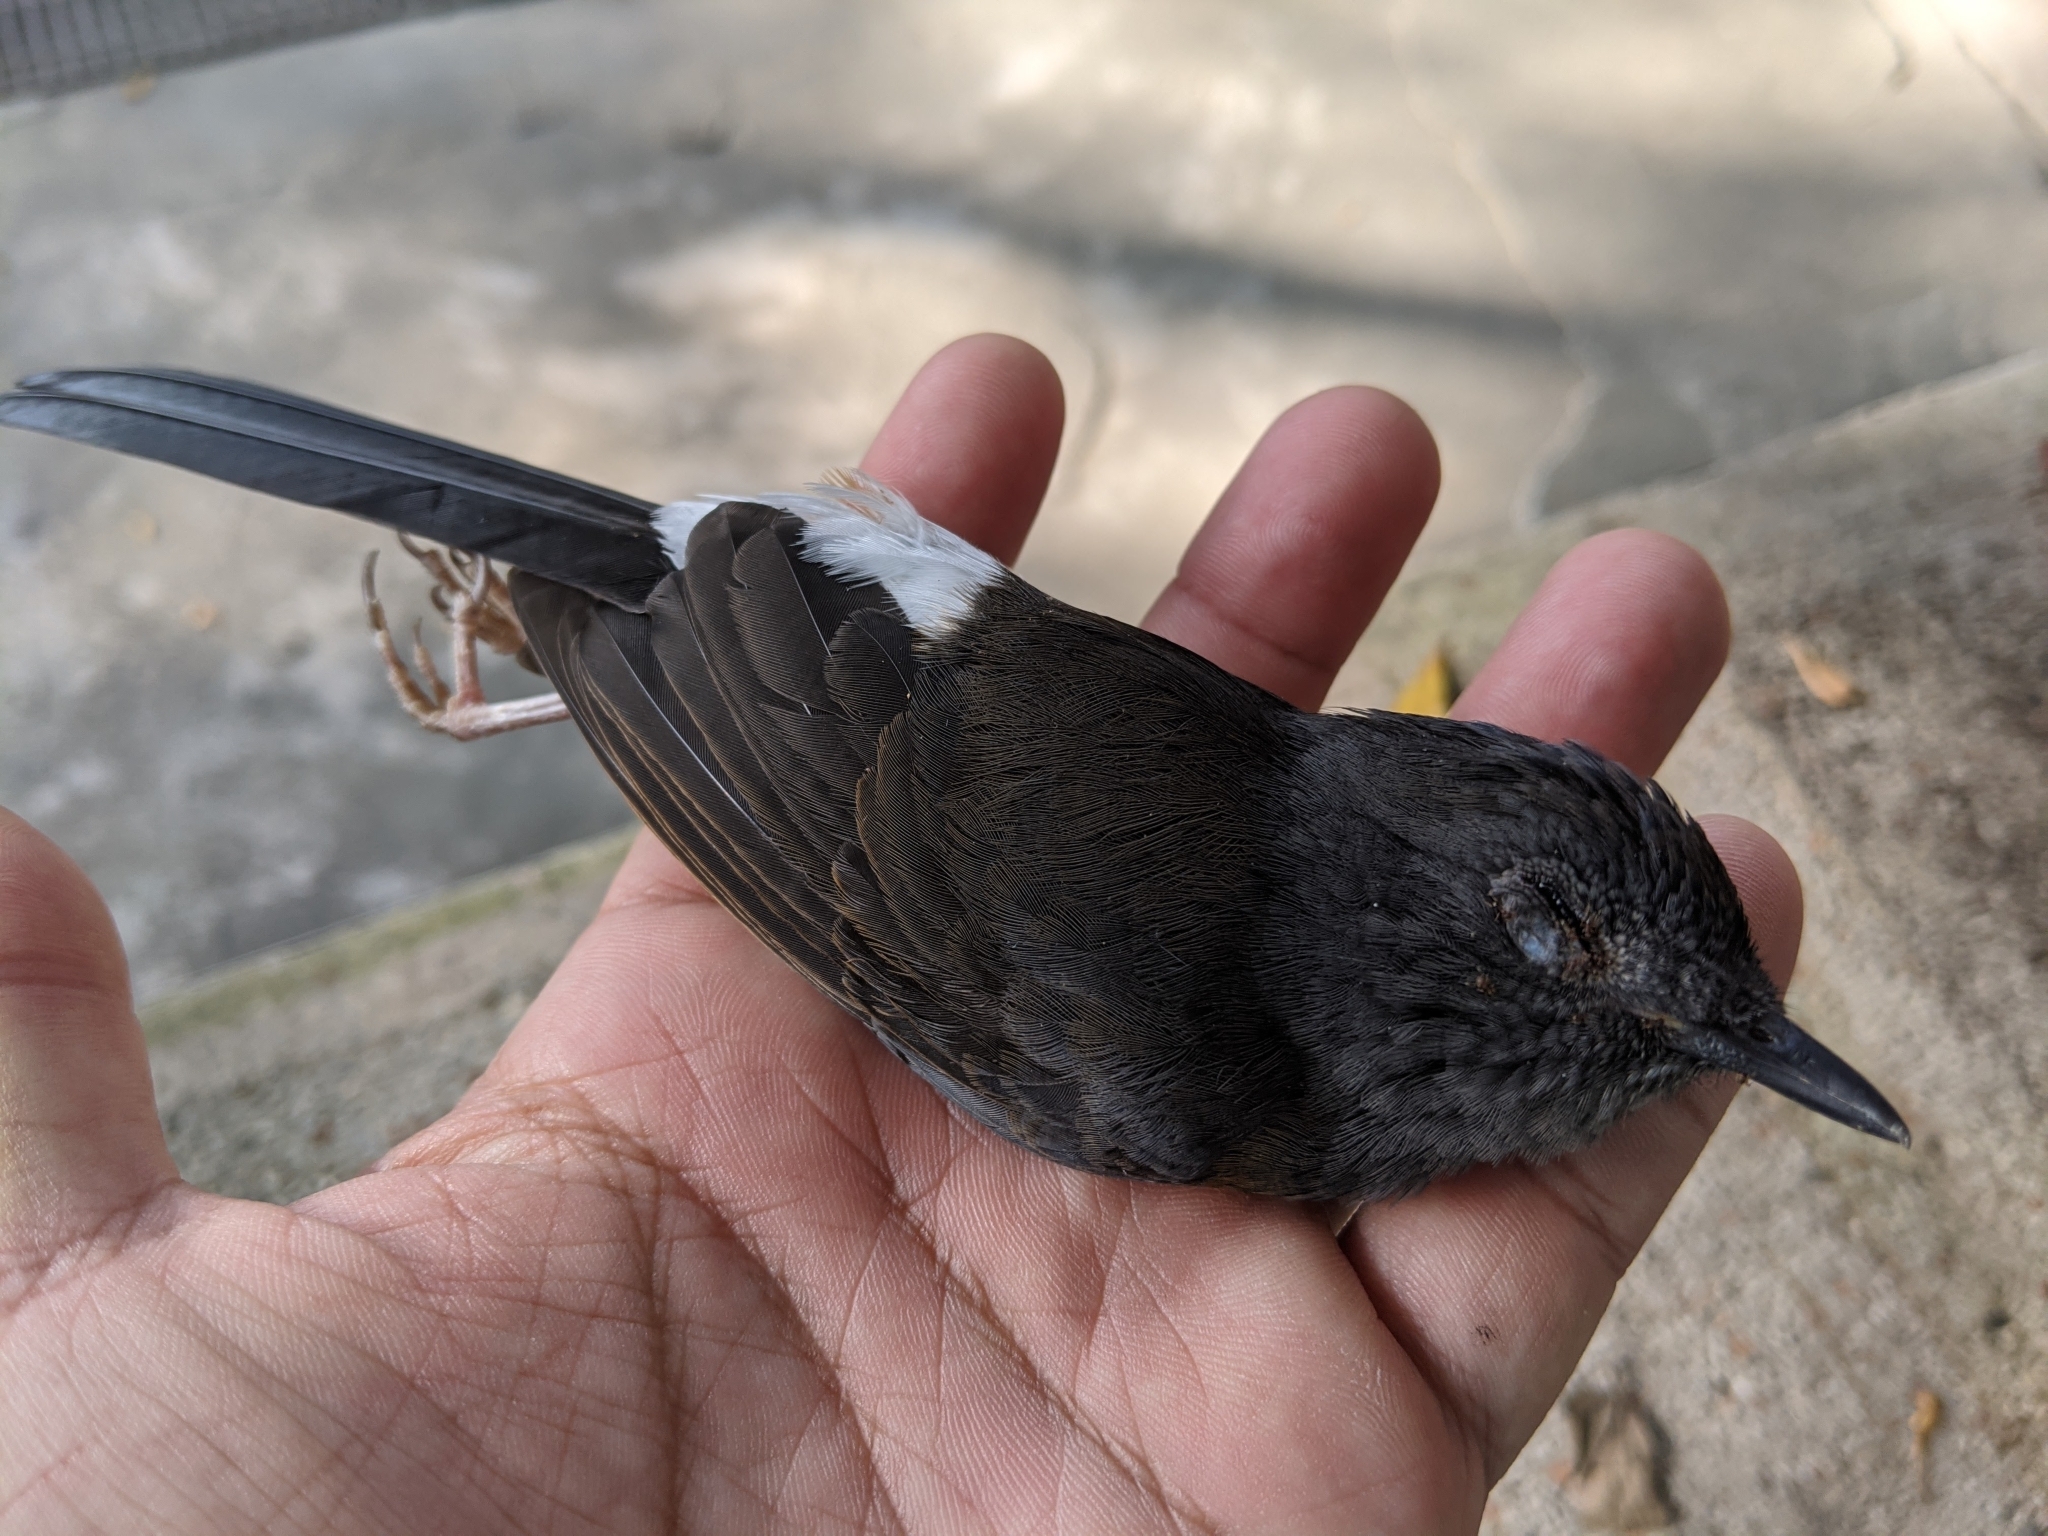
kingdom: Animalia
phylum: Chordata
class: Aves
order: Passeriformes
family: Muscicapidae
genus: Copsychus
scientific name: Copsychus malabaricus
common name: White-rumped shama
